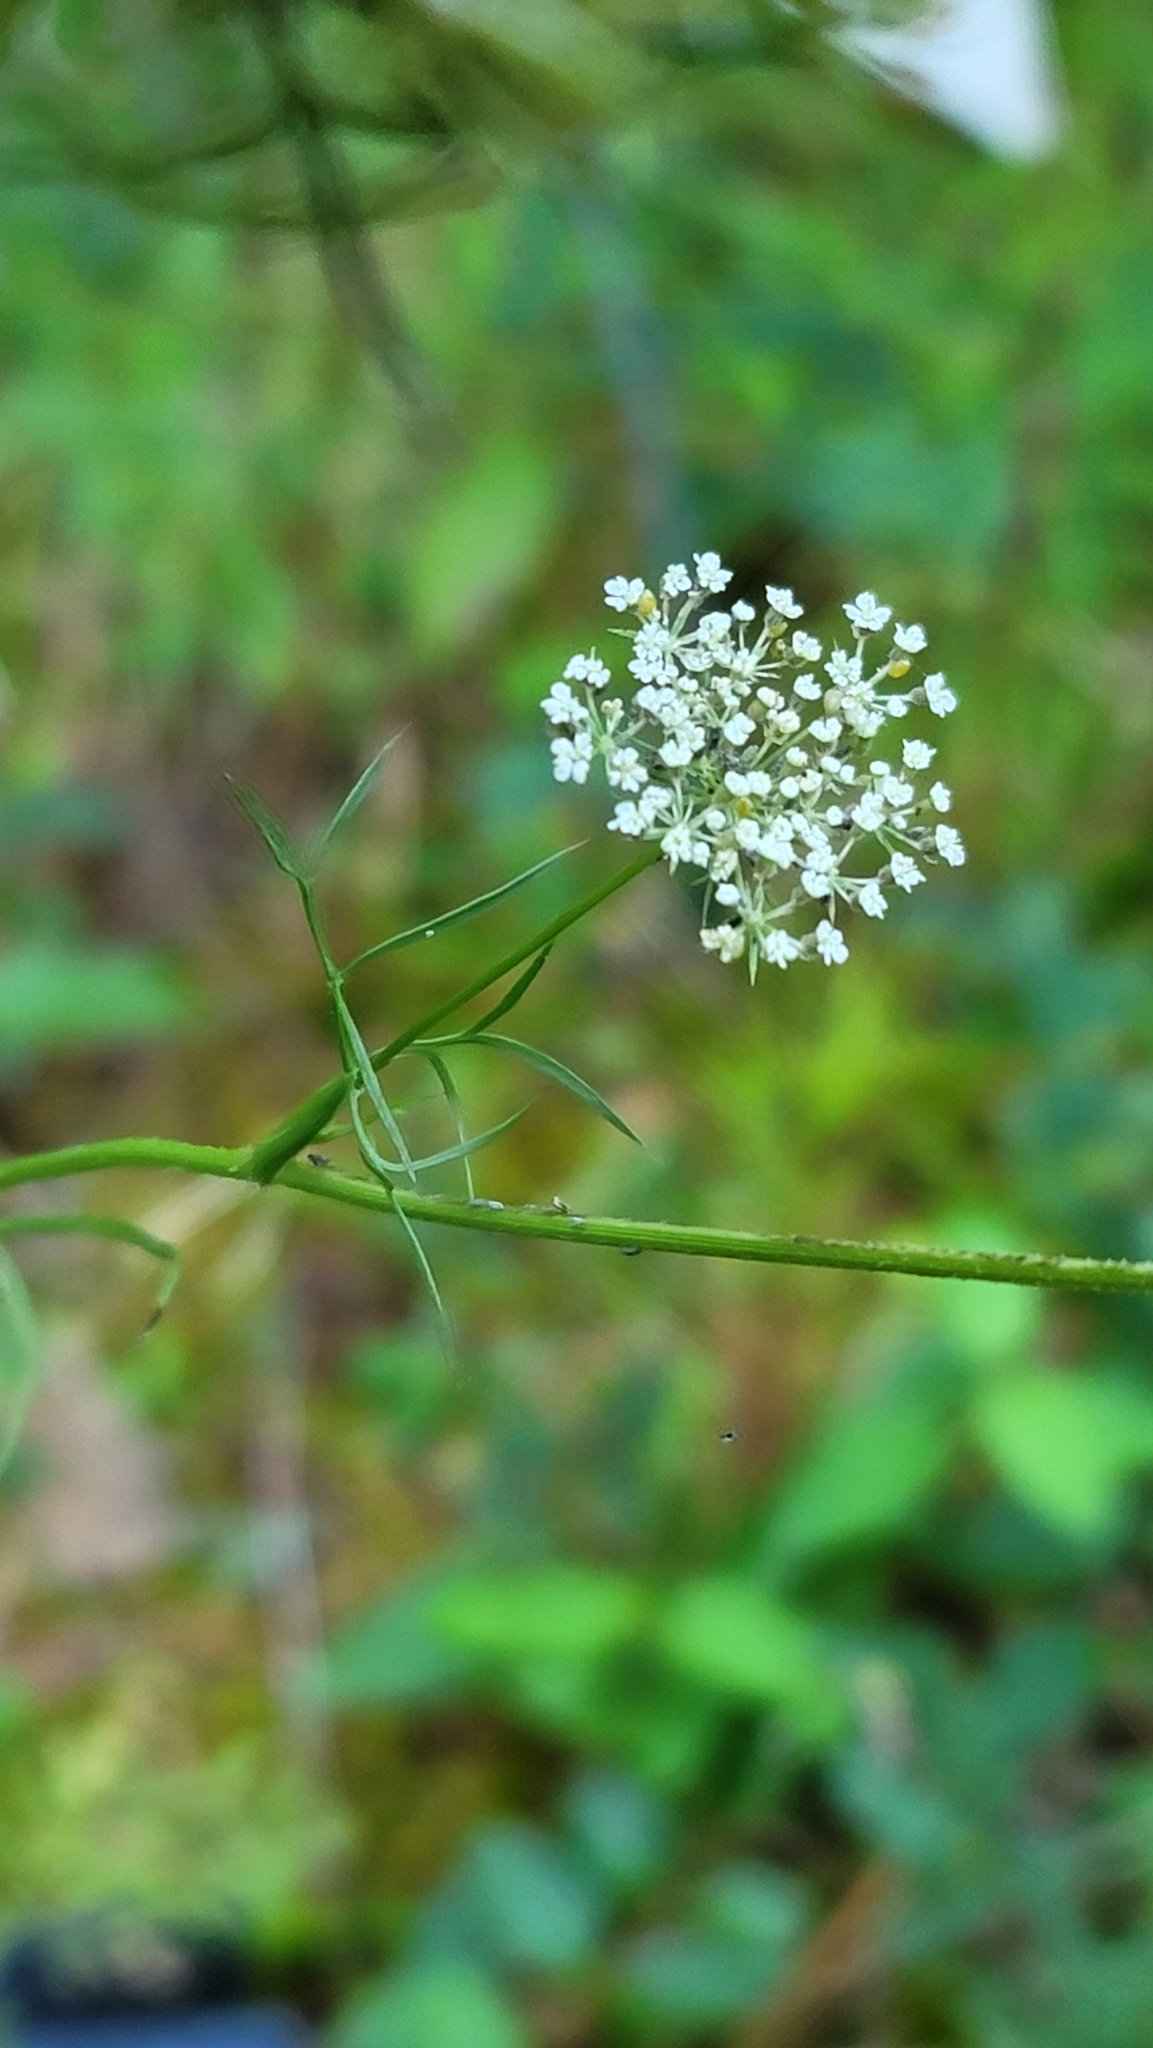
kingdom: Plantae
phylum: Tracheophyta
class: Magnoliopsida
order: Apiales
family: Apiaceae
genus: Daucus
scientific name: Daucus carota
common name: Wild carrot
